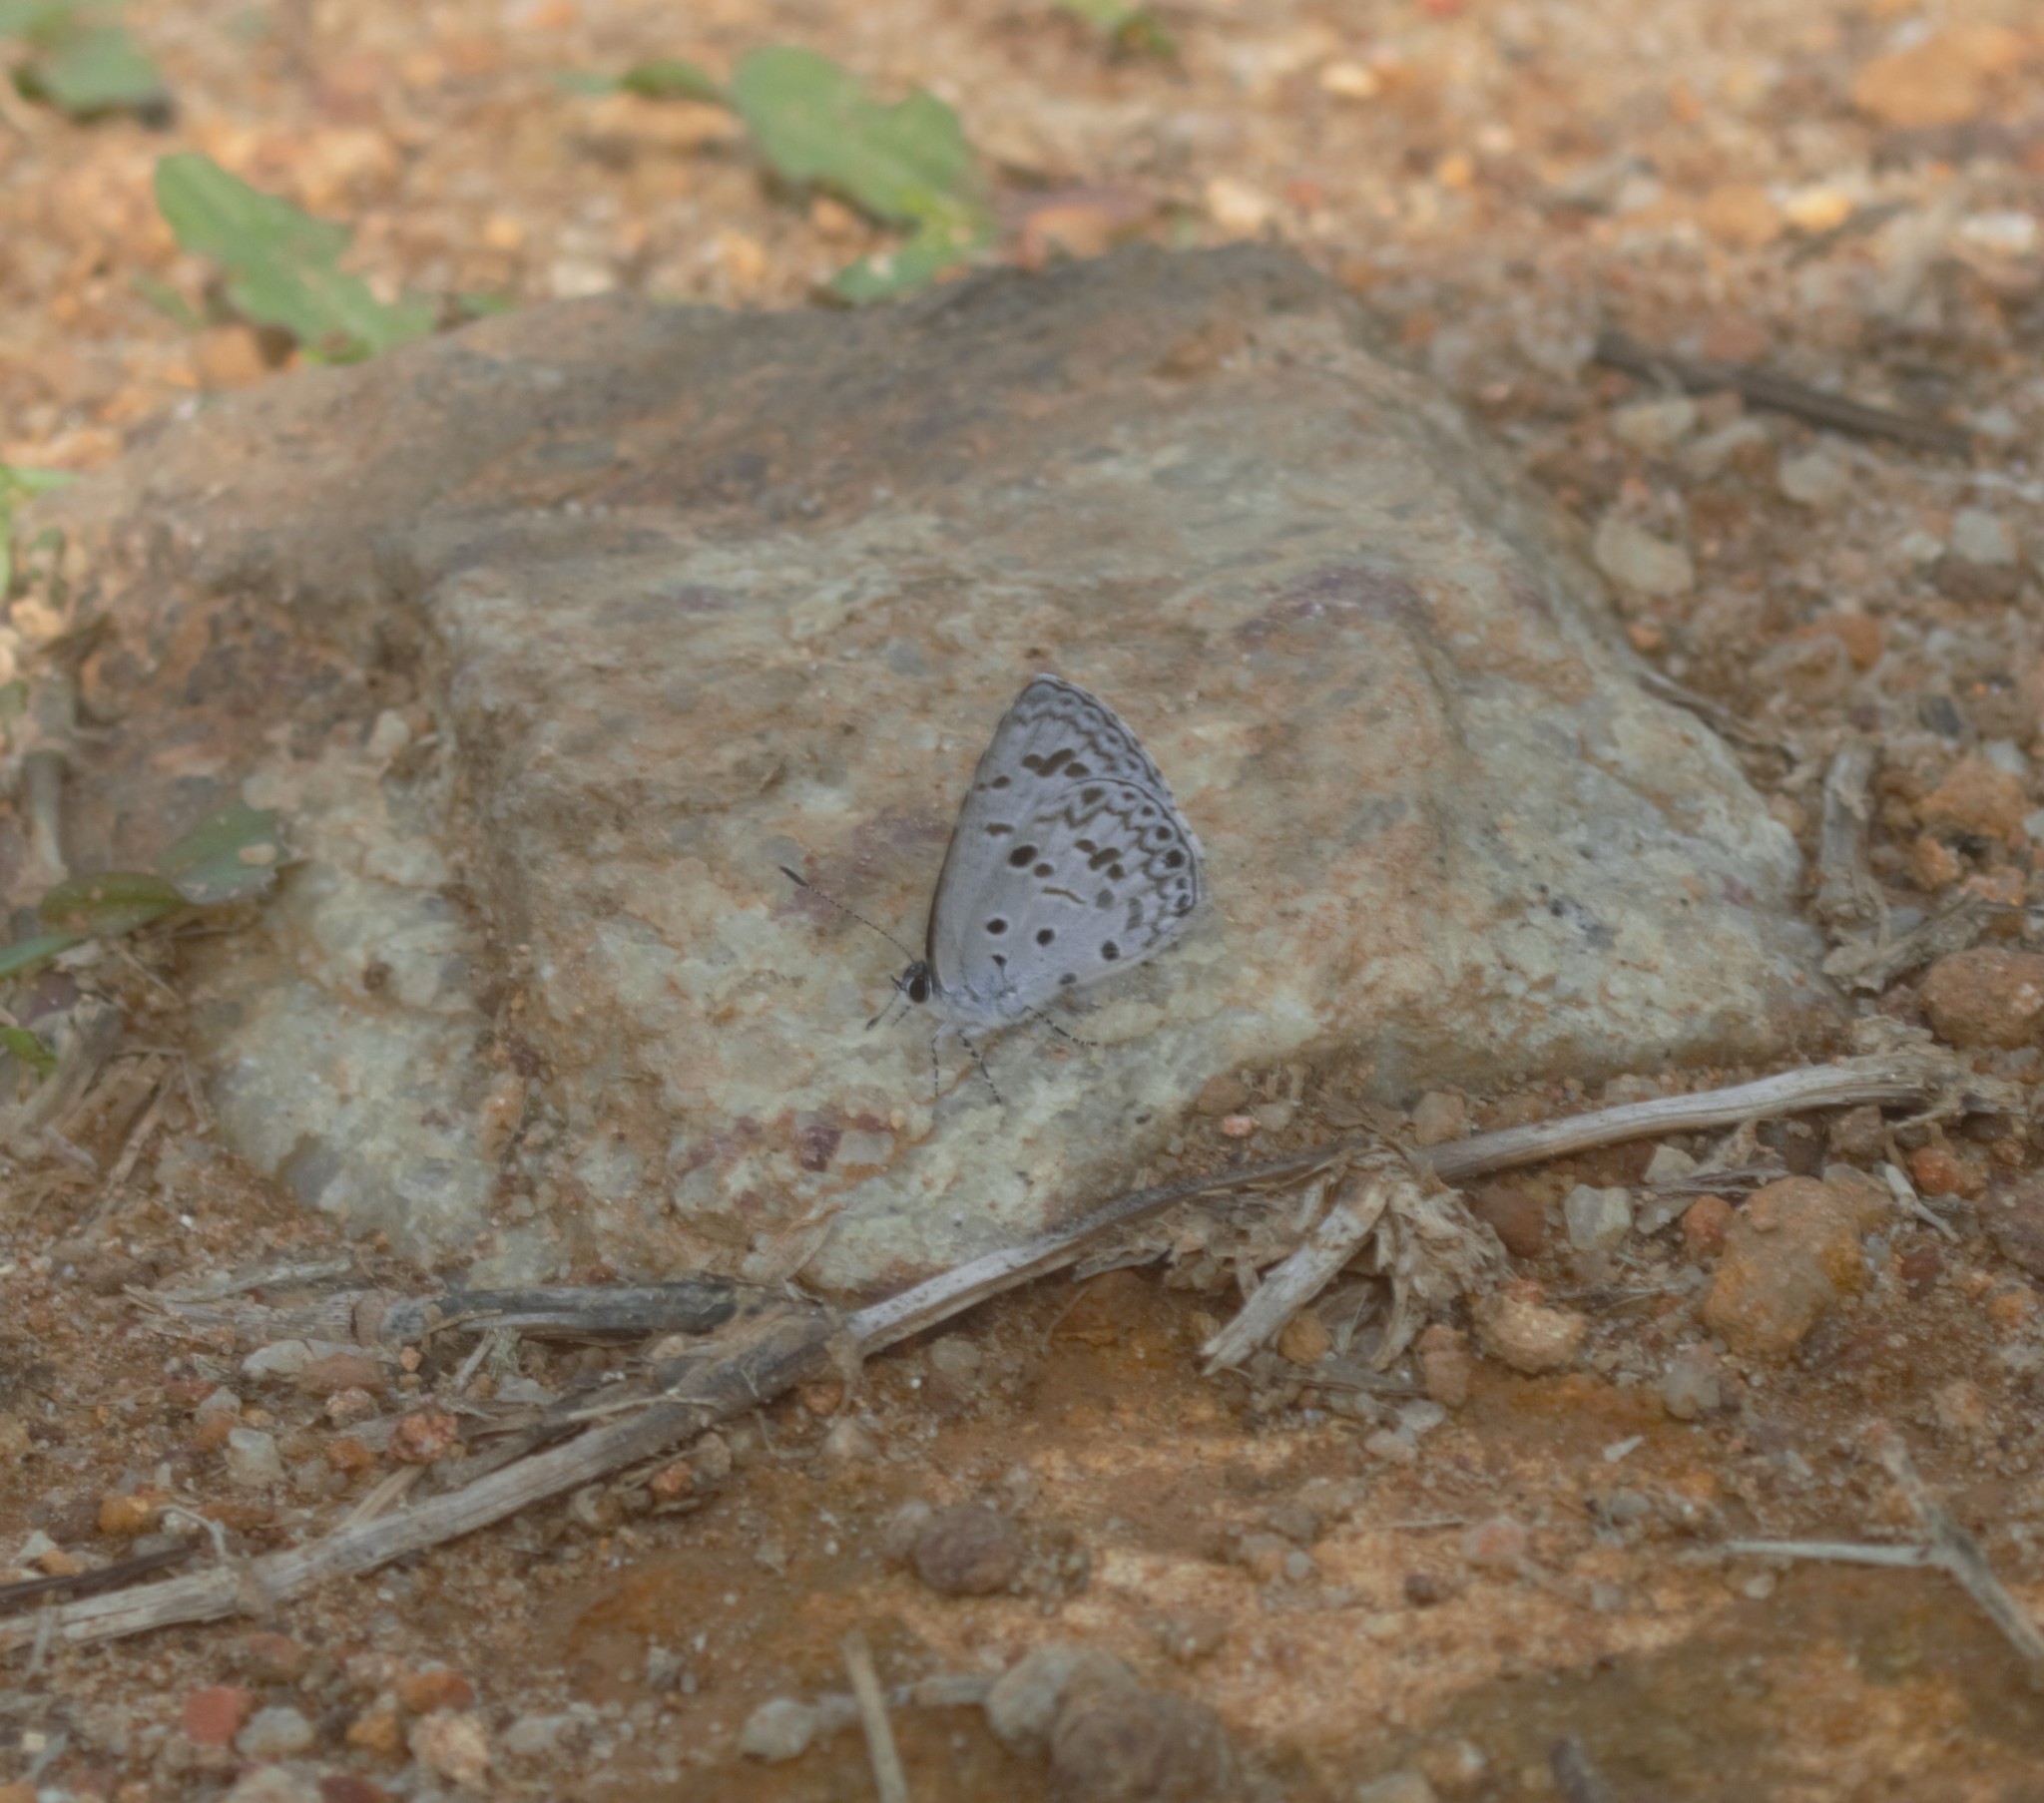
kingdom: Animalia
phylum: Arthropoda
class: Insecta
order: Lepidoptera
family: Lycaenidae
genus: Acytolepis
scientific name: Acytolepis puspa
